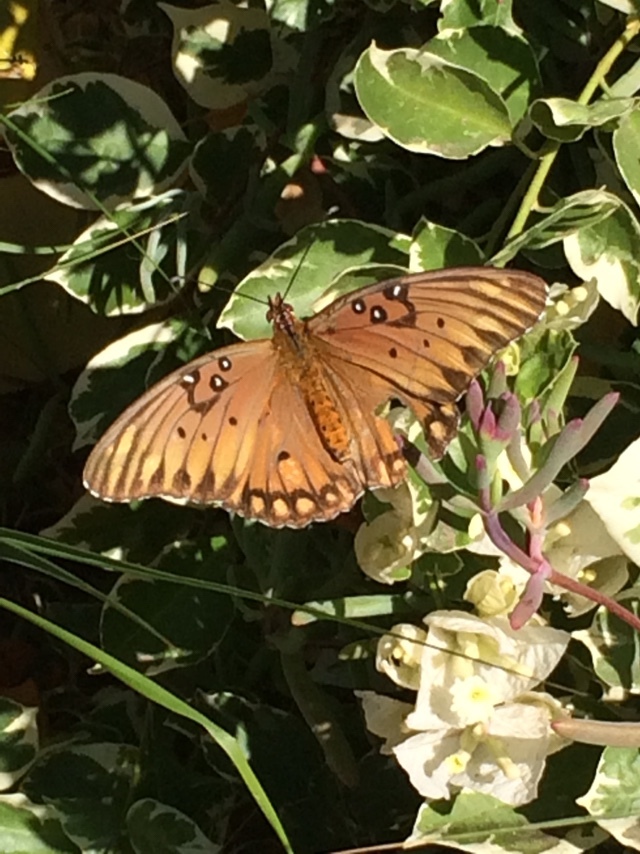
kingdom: Animalia
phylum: Arthropoda
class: Insecta
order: Lepidoptera
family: Nymphalidae
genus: Dione
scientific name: Dione vanillae
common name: Gulf fritillary
